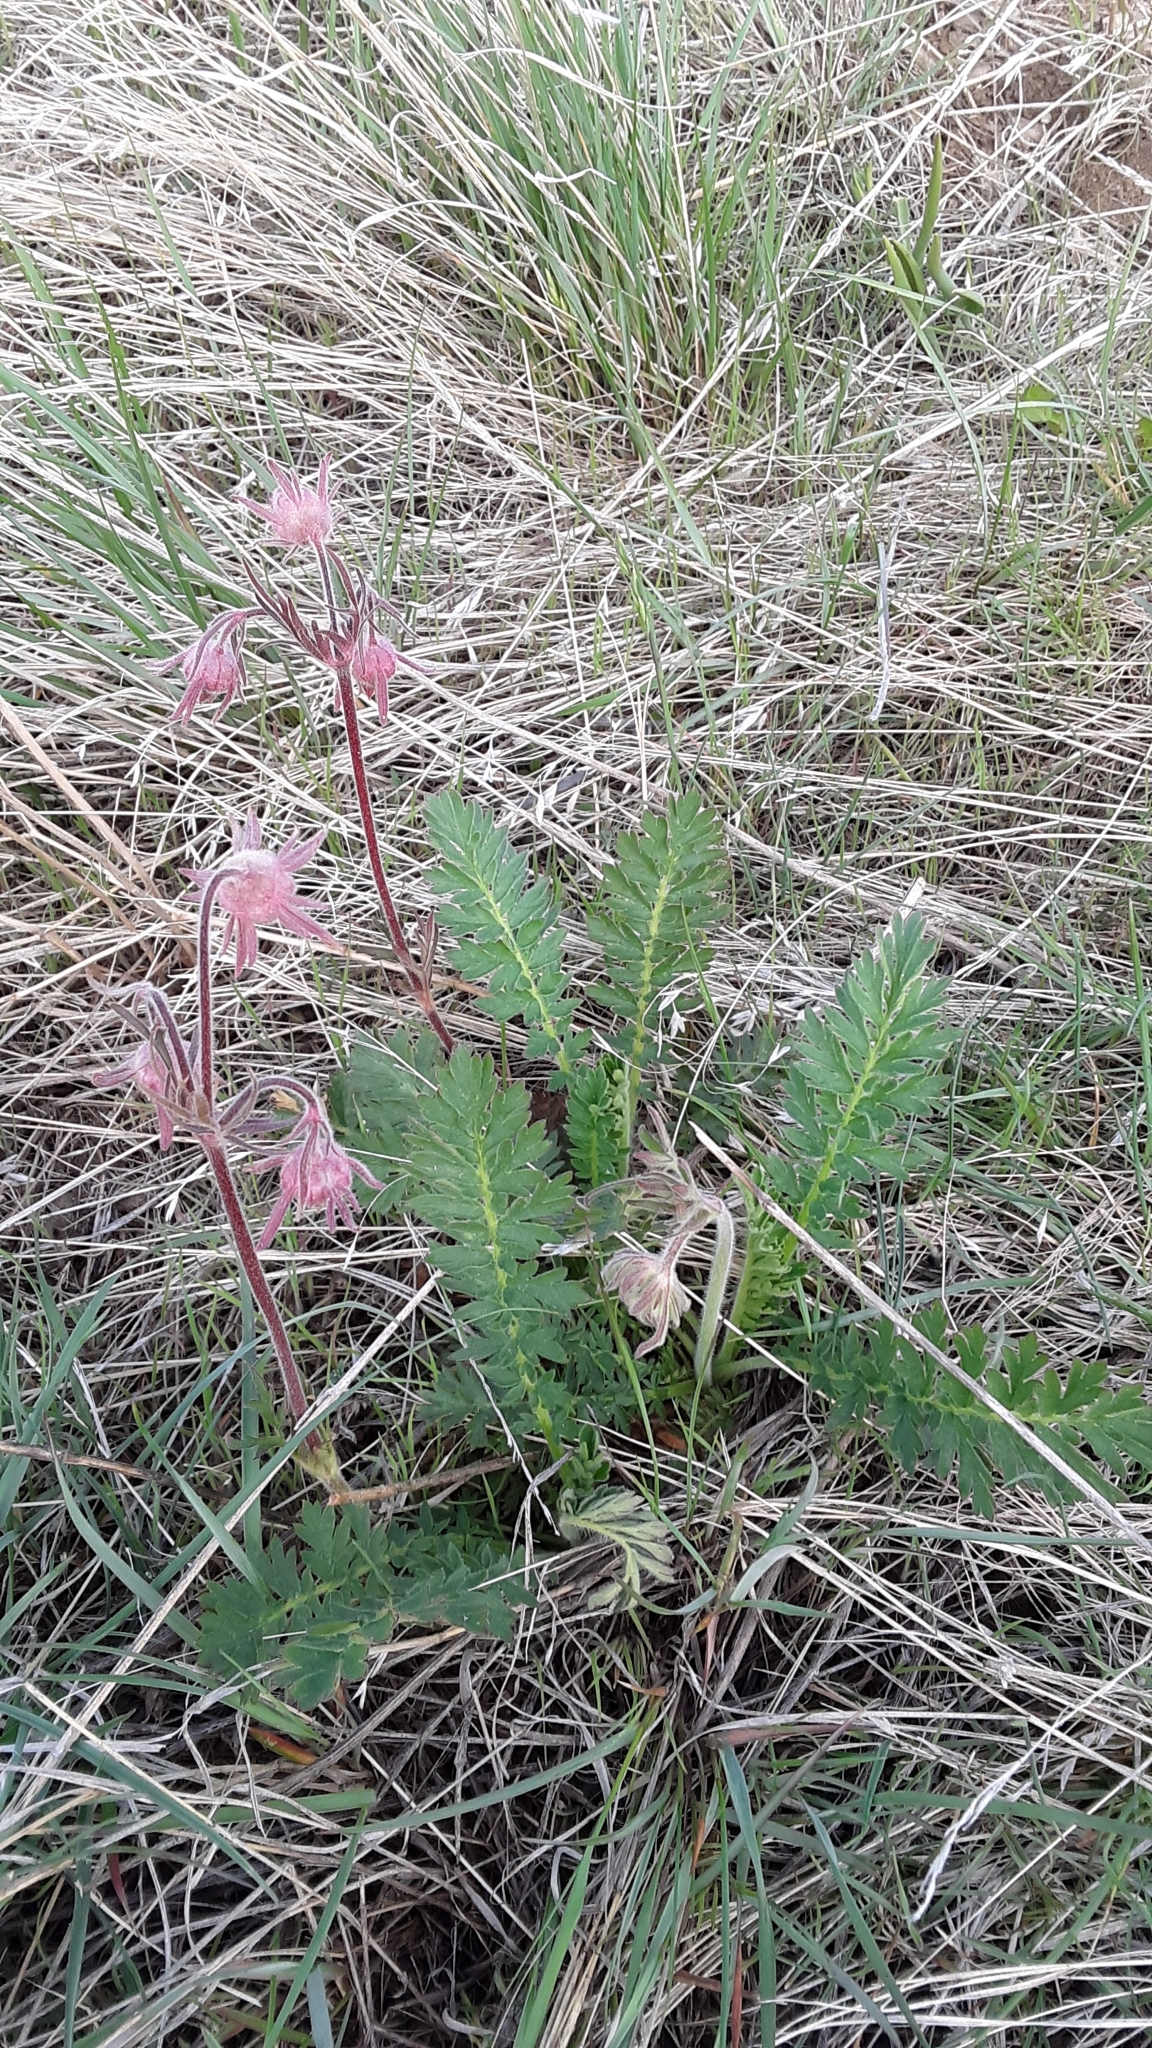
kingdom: Plantae
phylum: Tracheophyta
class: Magnoliopsida
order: Rosales
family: Rosaceae
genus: Geum
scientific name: Geum triflorum
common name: Old man's whiskers
